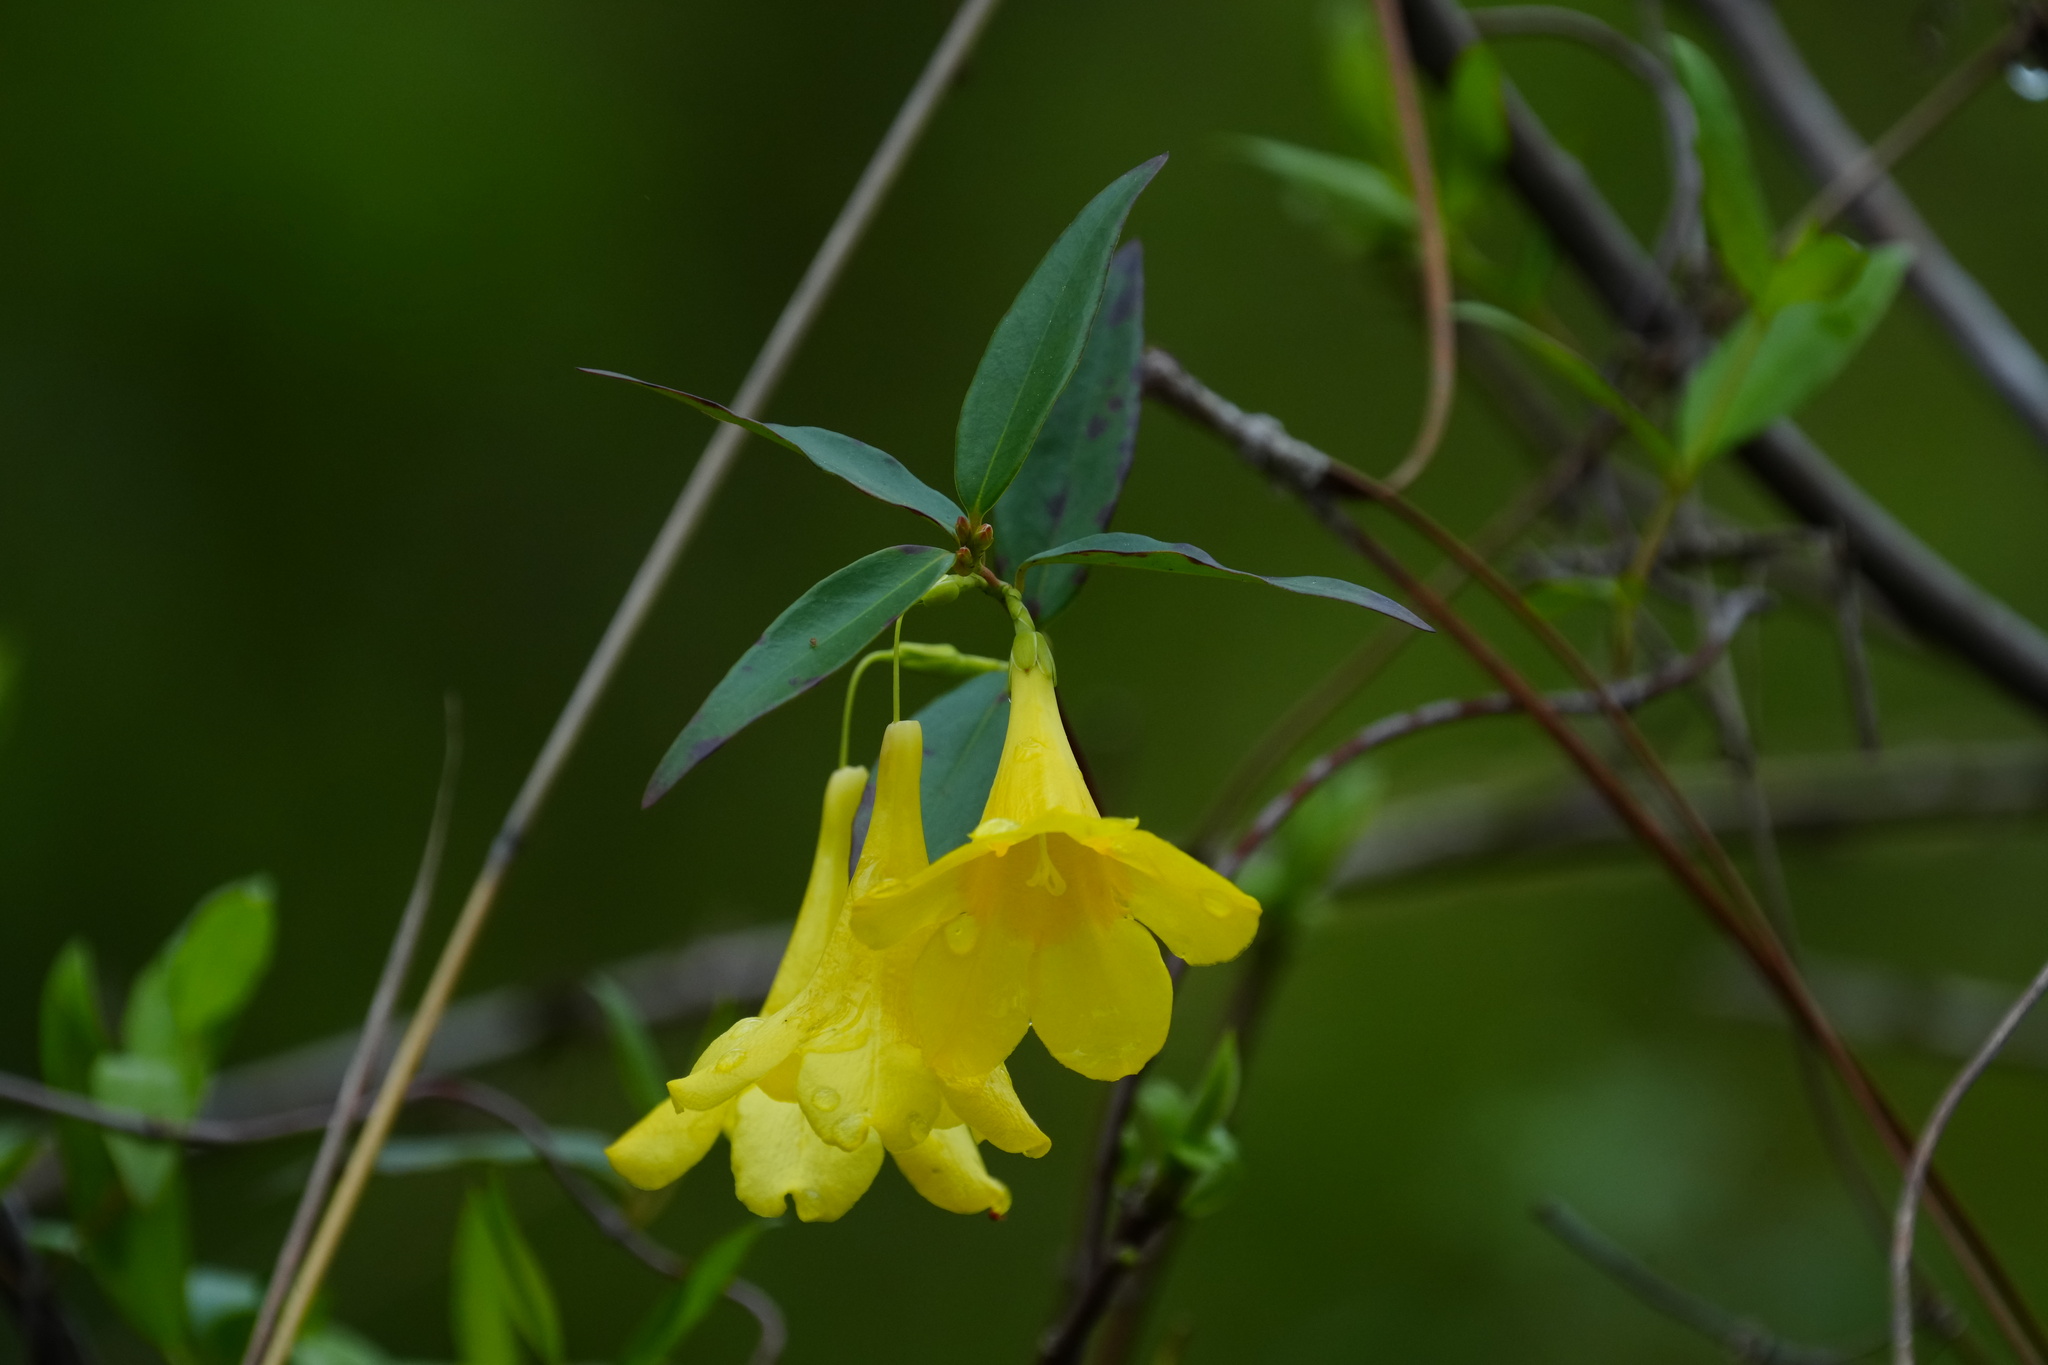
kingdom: Plantae
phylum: Tracheophyta
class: Magnoliopsida
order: Gentianales
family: Gelsemiaceae
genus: Gelsemium
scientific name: Gelsemium sempervirens
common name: Carolina-jasmine
